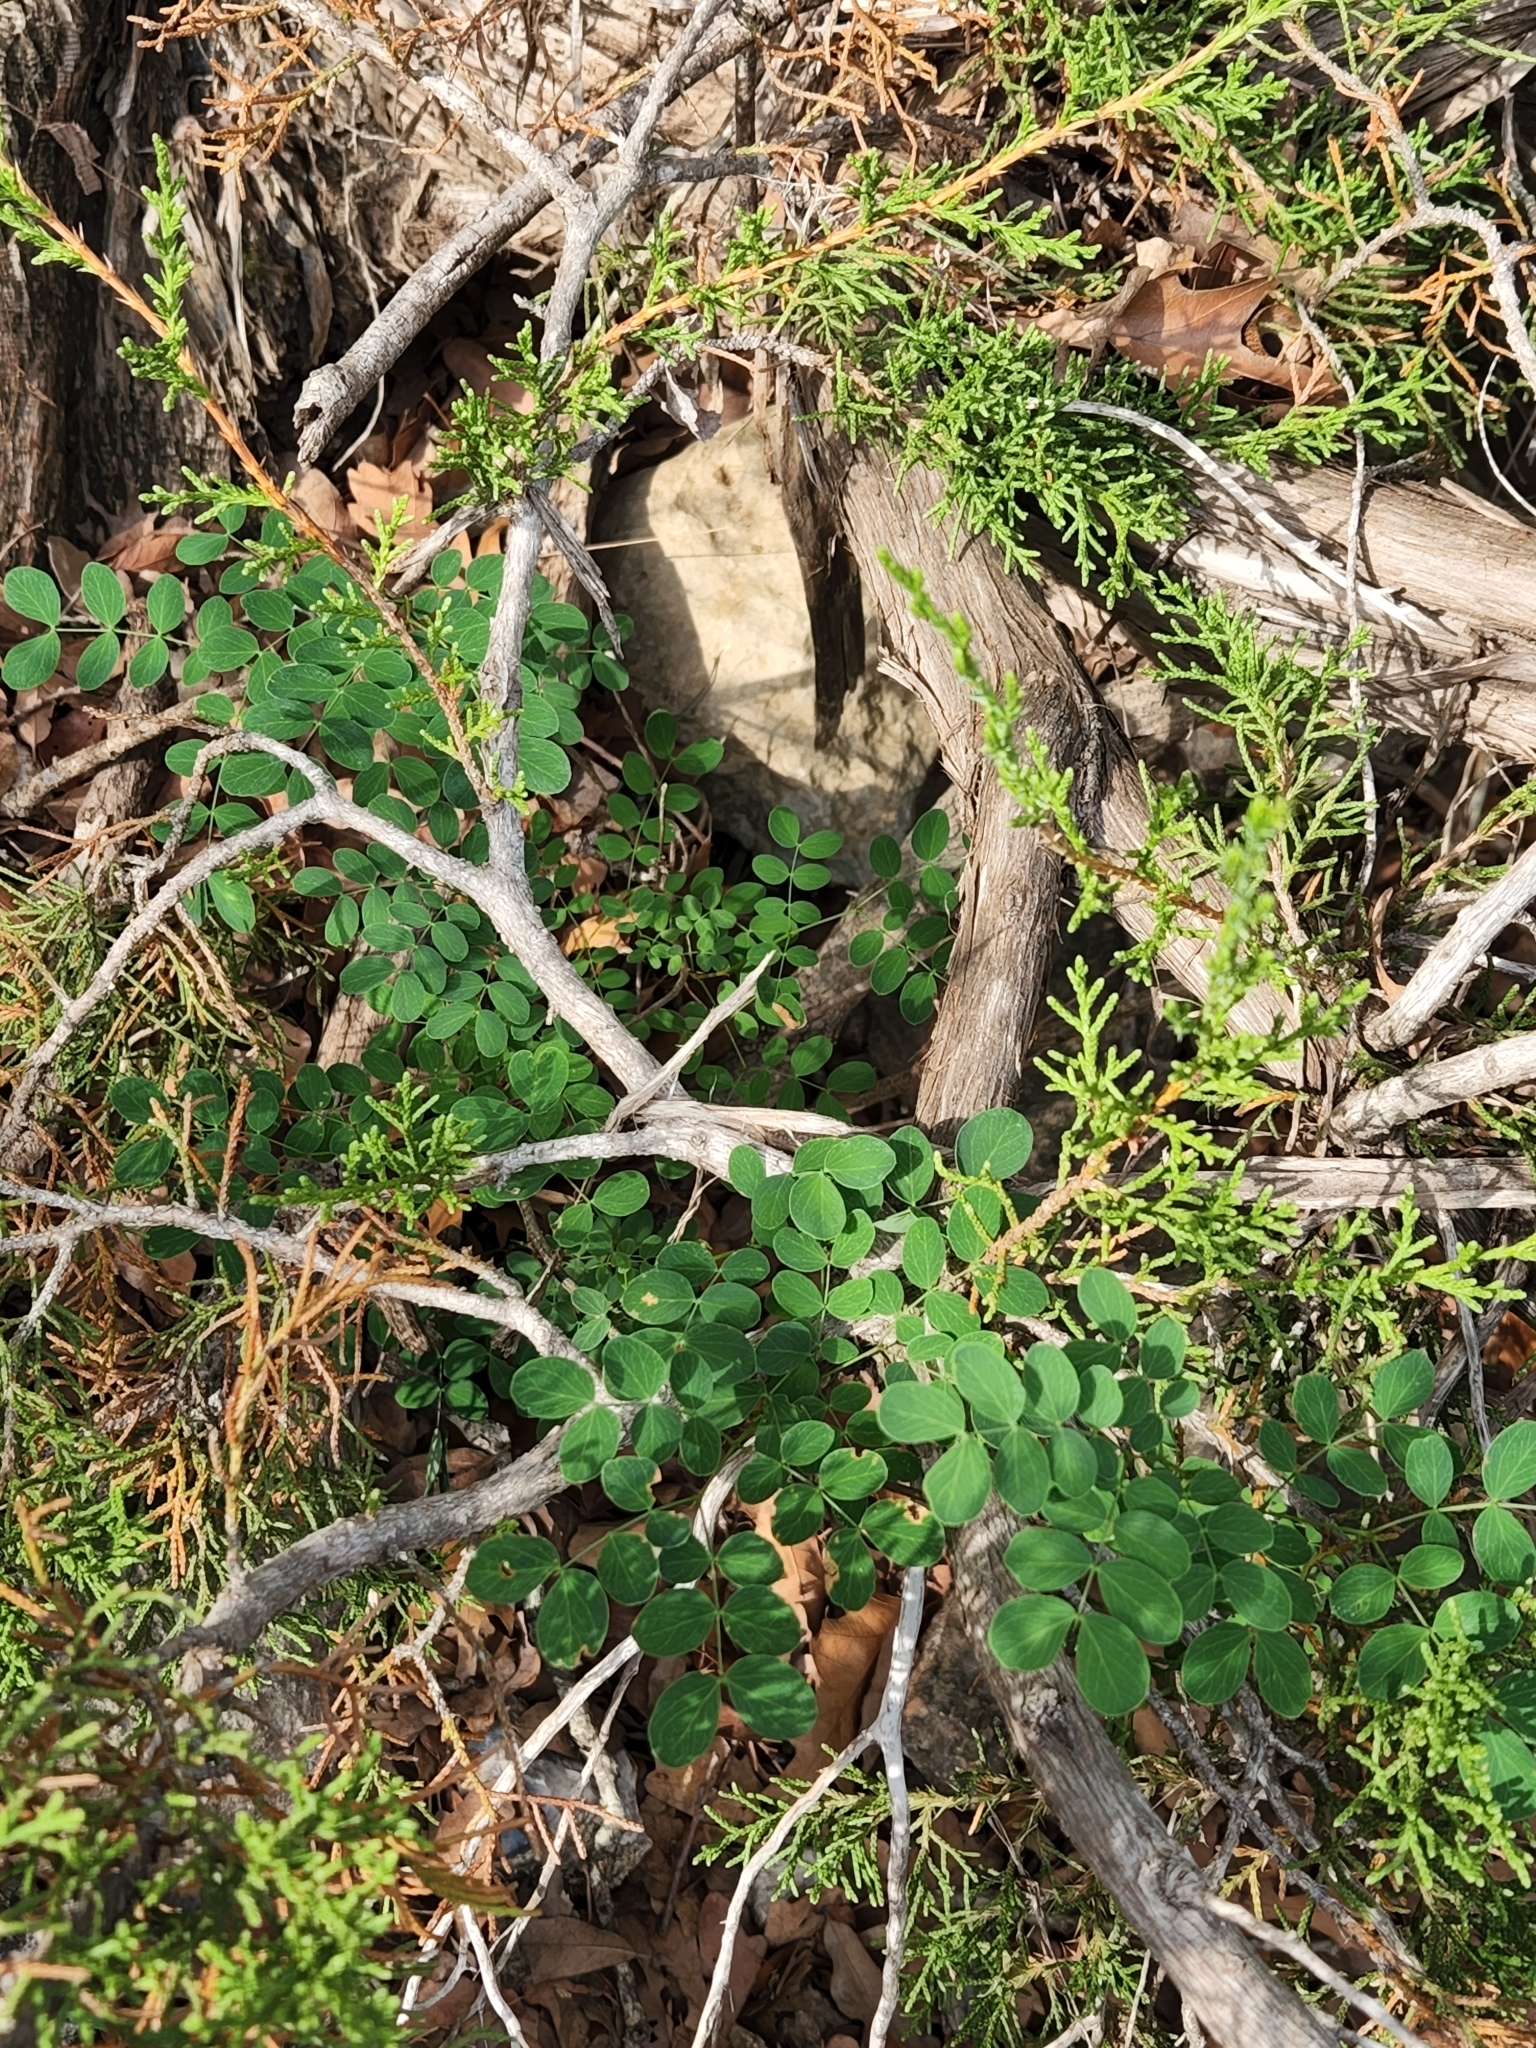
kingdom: Plantae
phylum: Tracheophyta
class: Magnoliopsida
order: Fabales
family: Fabaceae
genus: Leucaena
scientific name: Leucaena retusa
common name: Littleleaf leadtree
